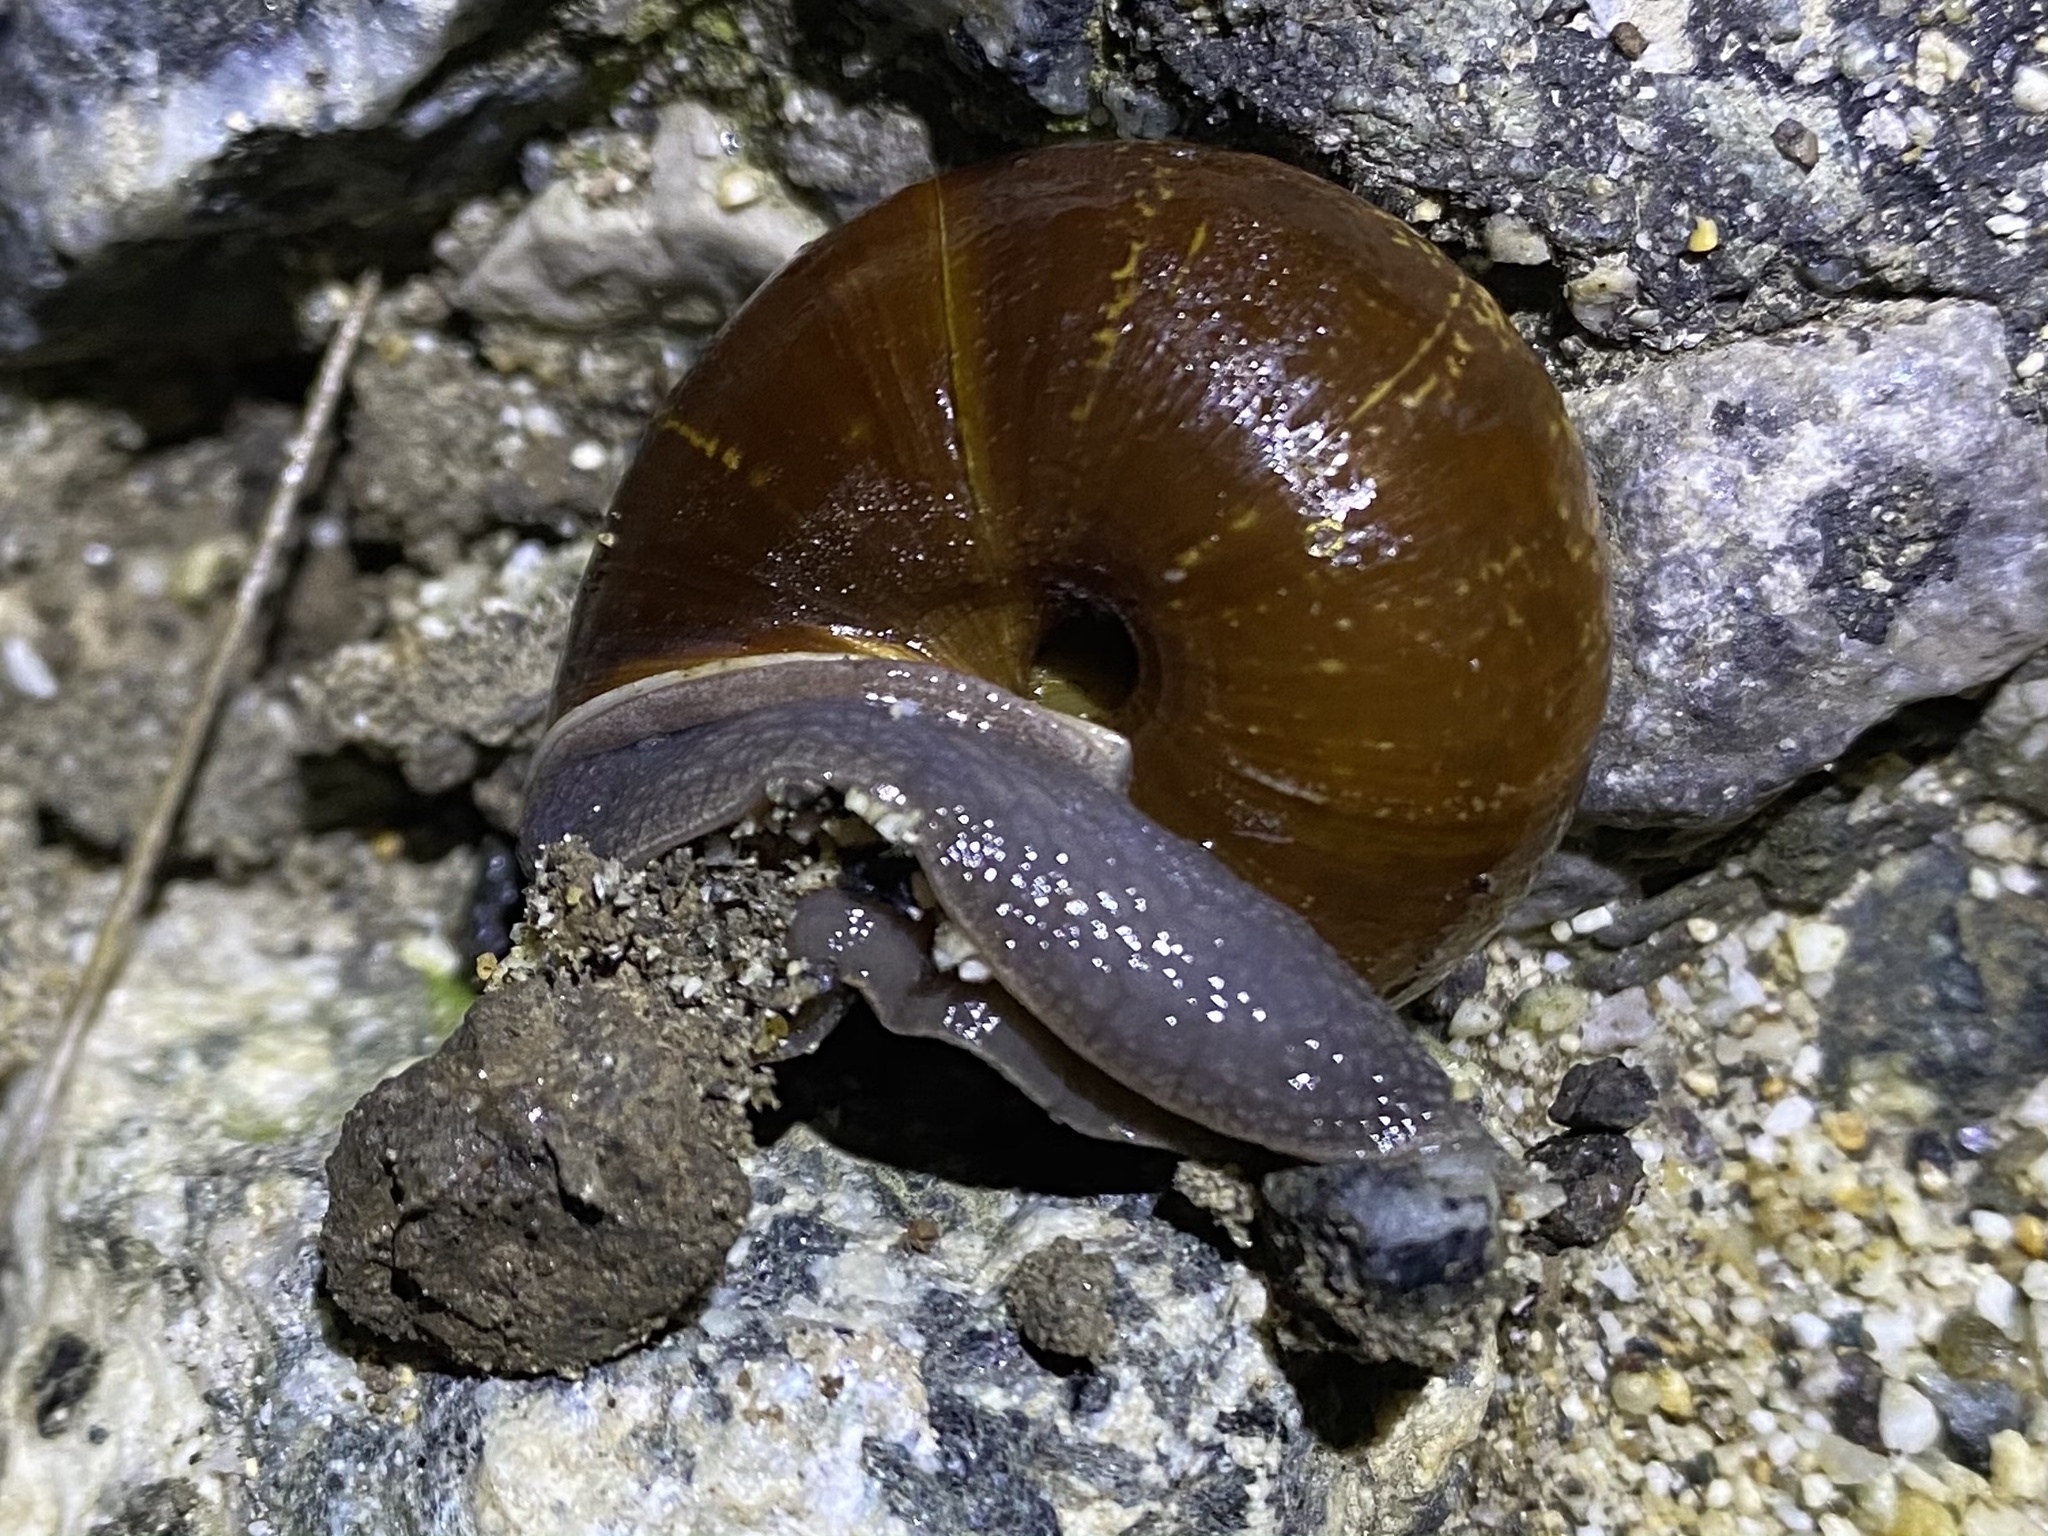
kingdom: Animalia
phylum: Mollusca
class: Gastropoda
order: Stylommatophora
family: Xanthonychidae
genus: Helminthoglypta
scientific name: Helminthoglypta arrosa
